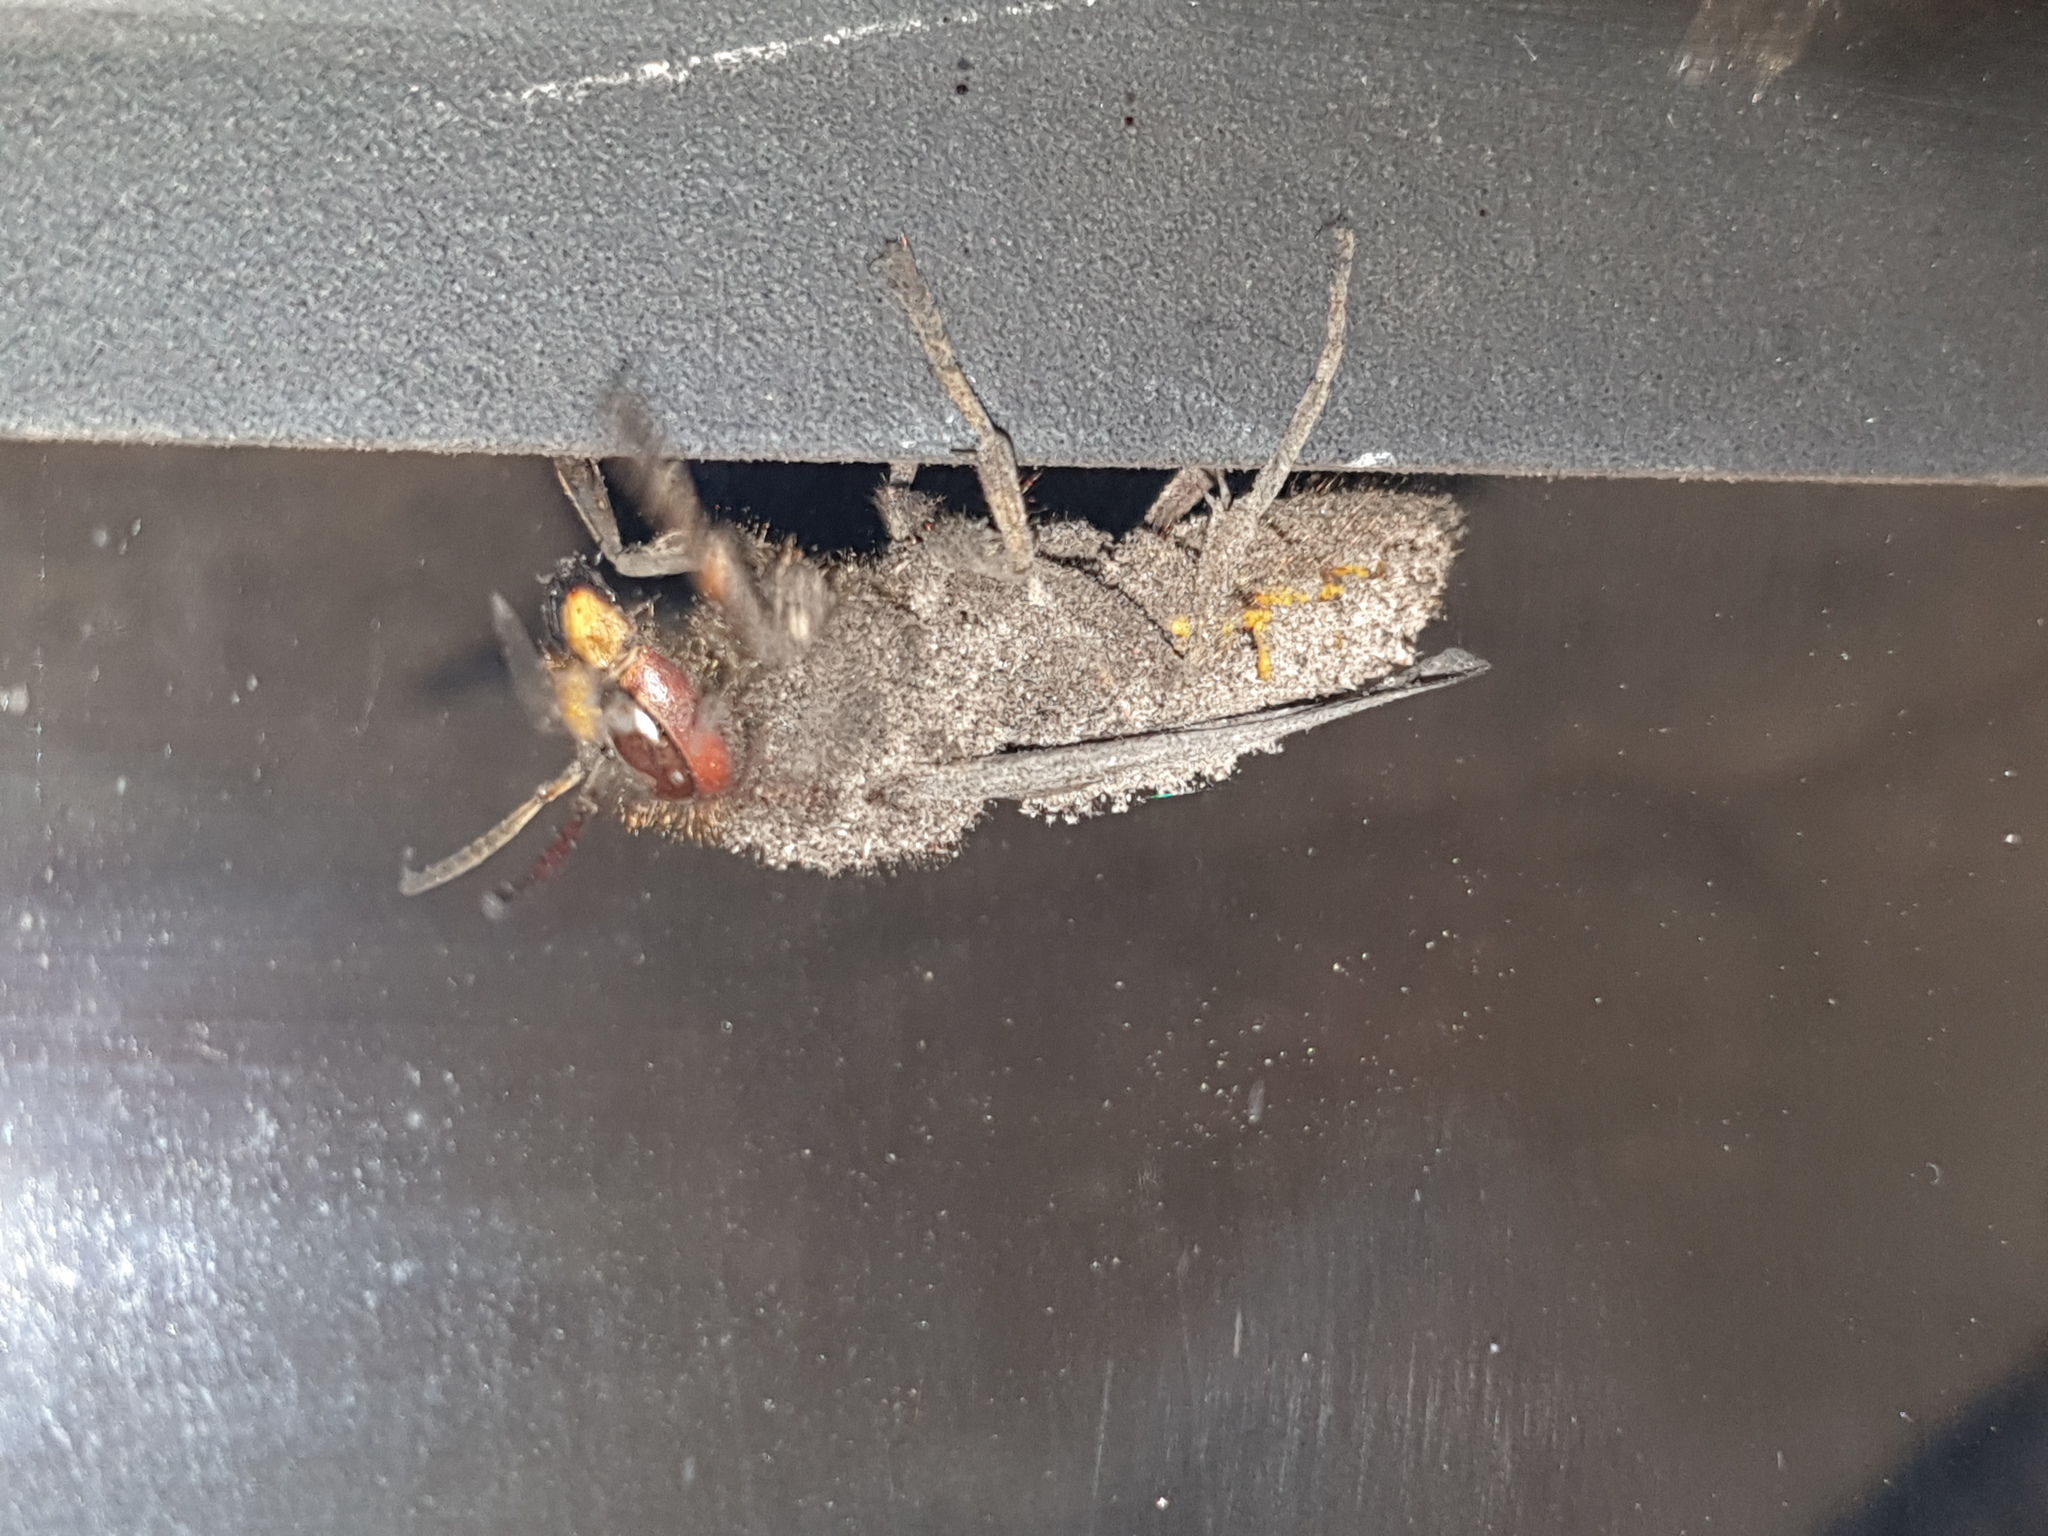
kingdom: Animalia
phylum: Arthropoda
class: Insecta
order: Hymenoptera
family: Vespidae
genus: Vespa
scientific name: Vespa crabro
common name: Hornet
